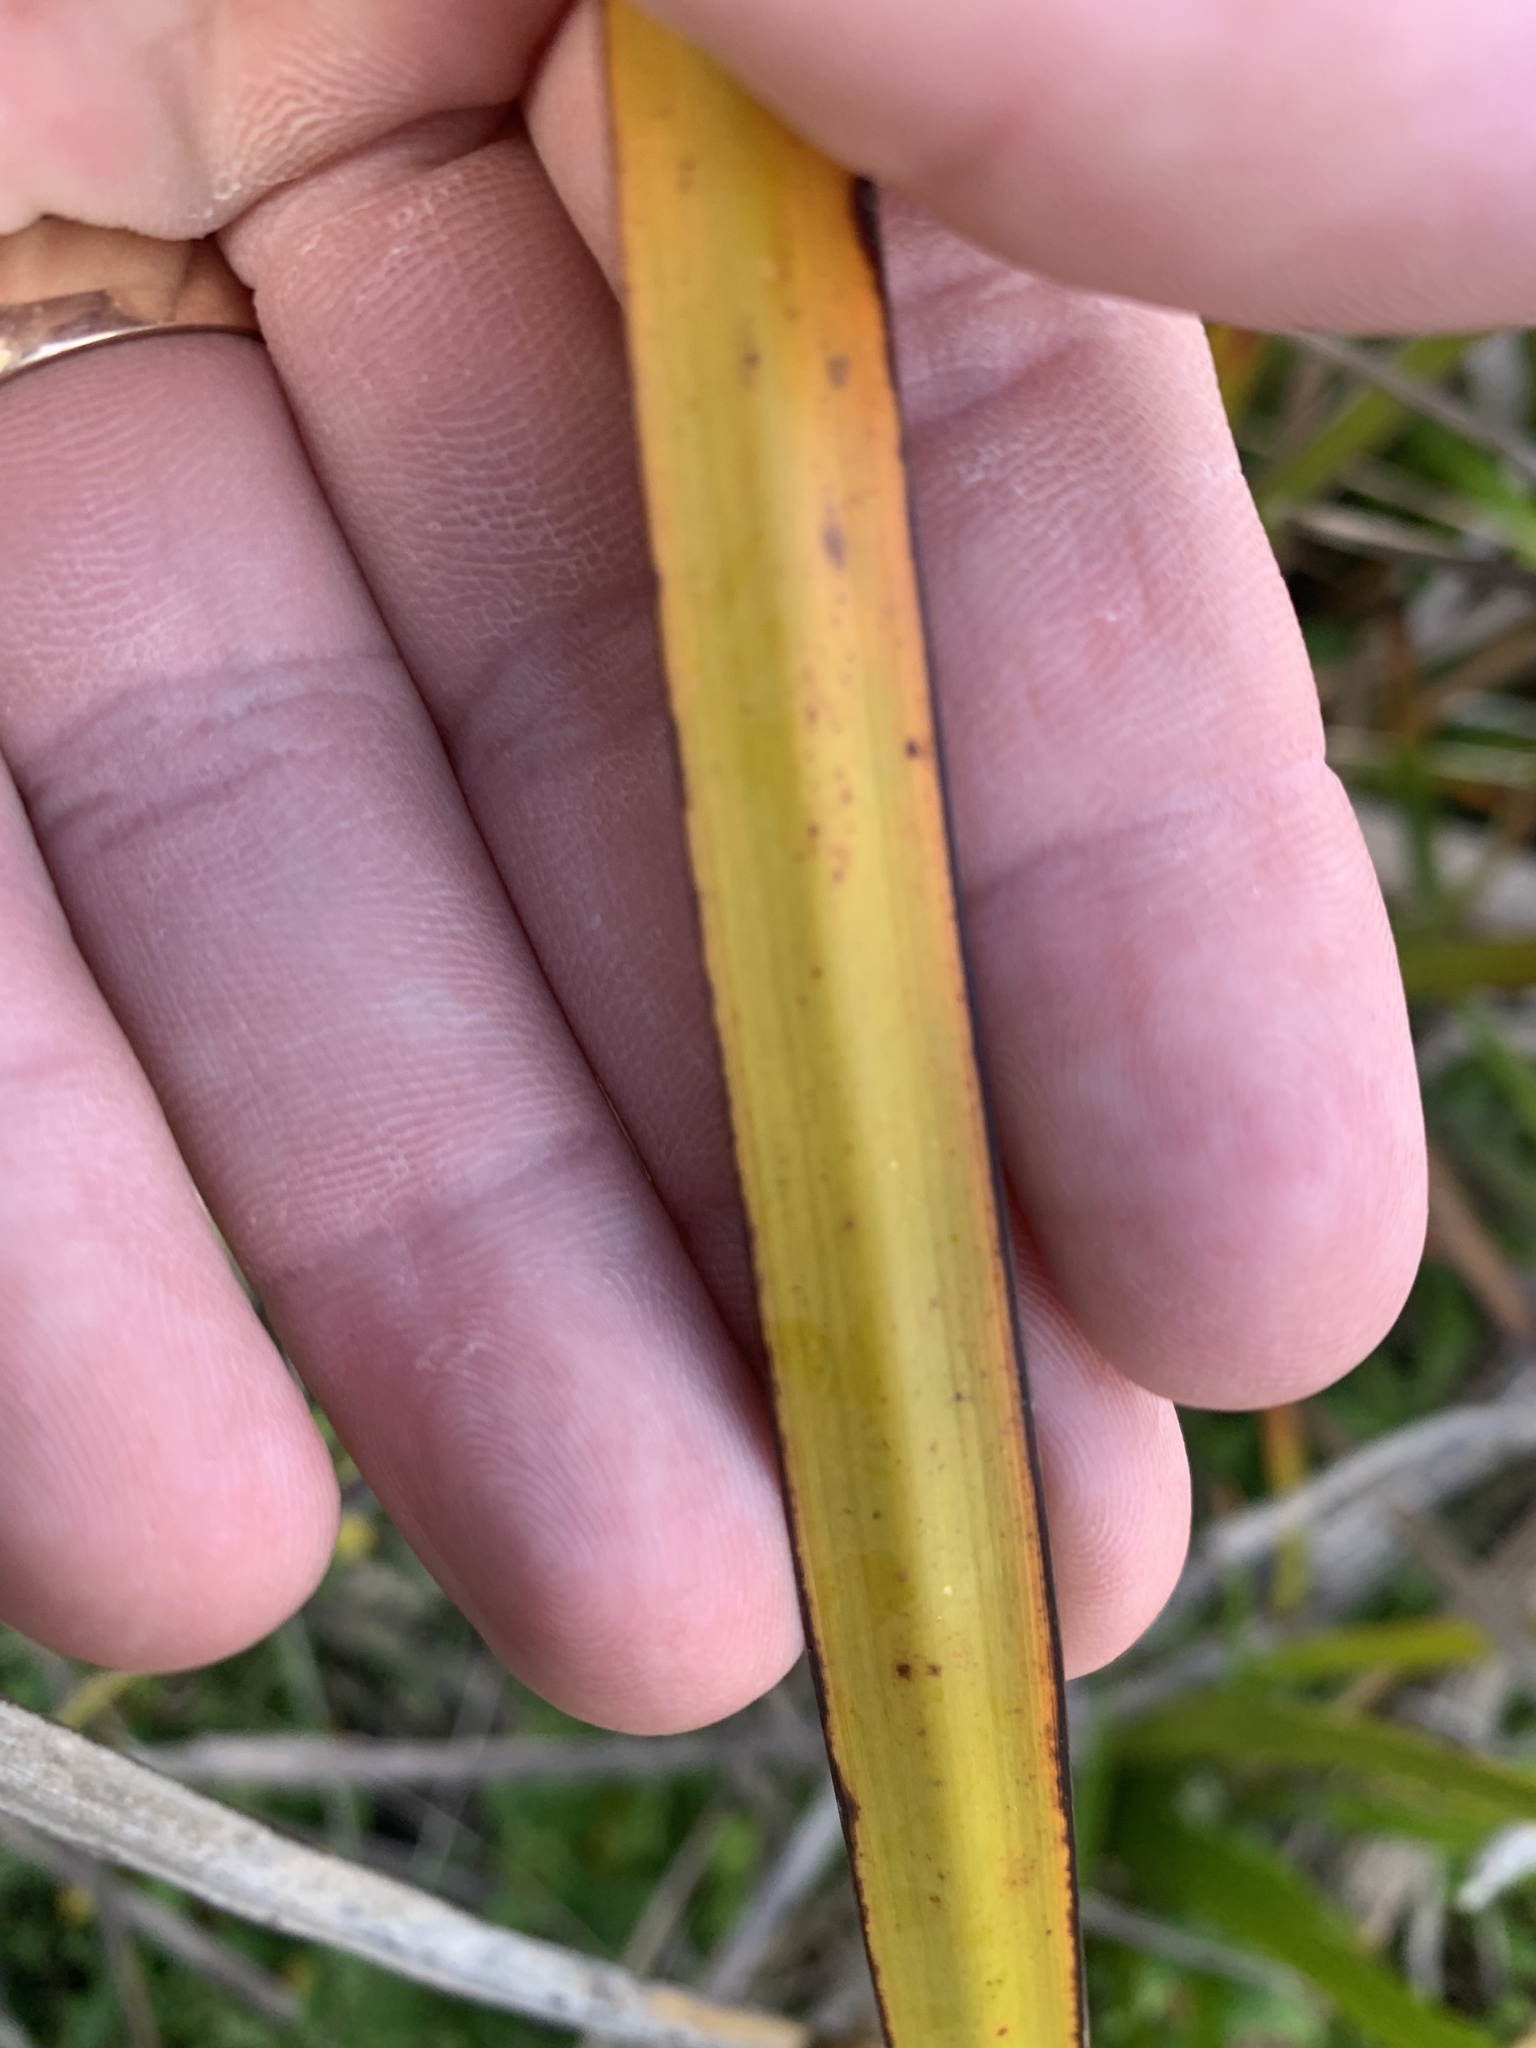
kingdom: Plantae
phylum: Tracheophyta
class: Liliopsida
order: Poales
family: Cyperaceae
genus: Lepidosperma
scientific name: Lepidosperma gladiatum
